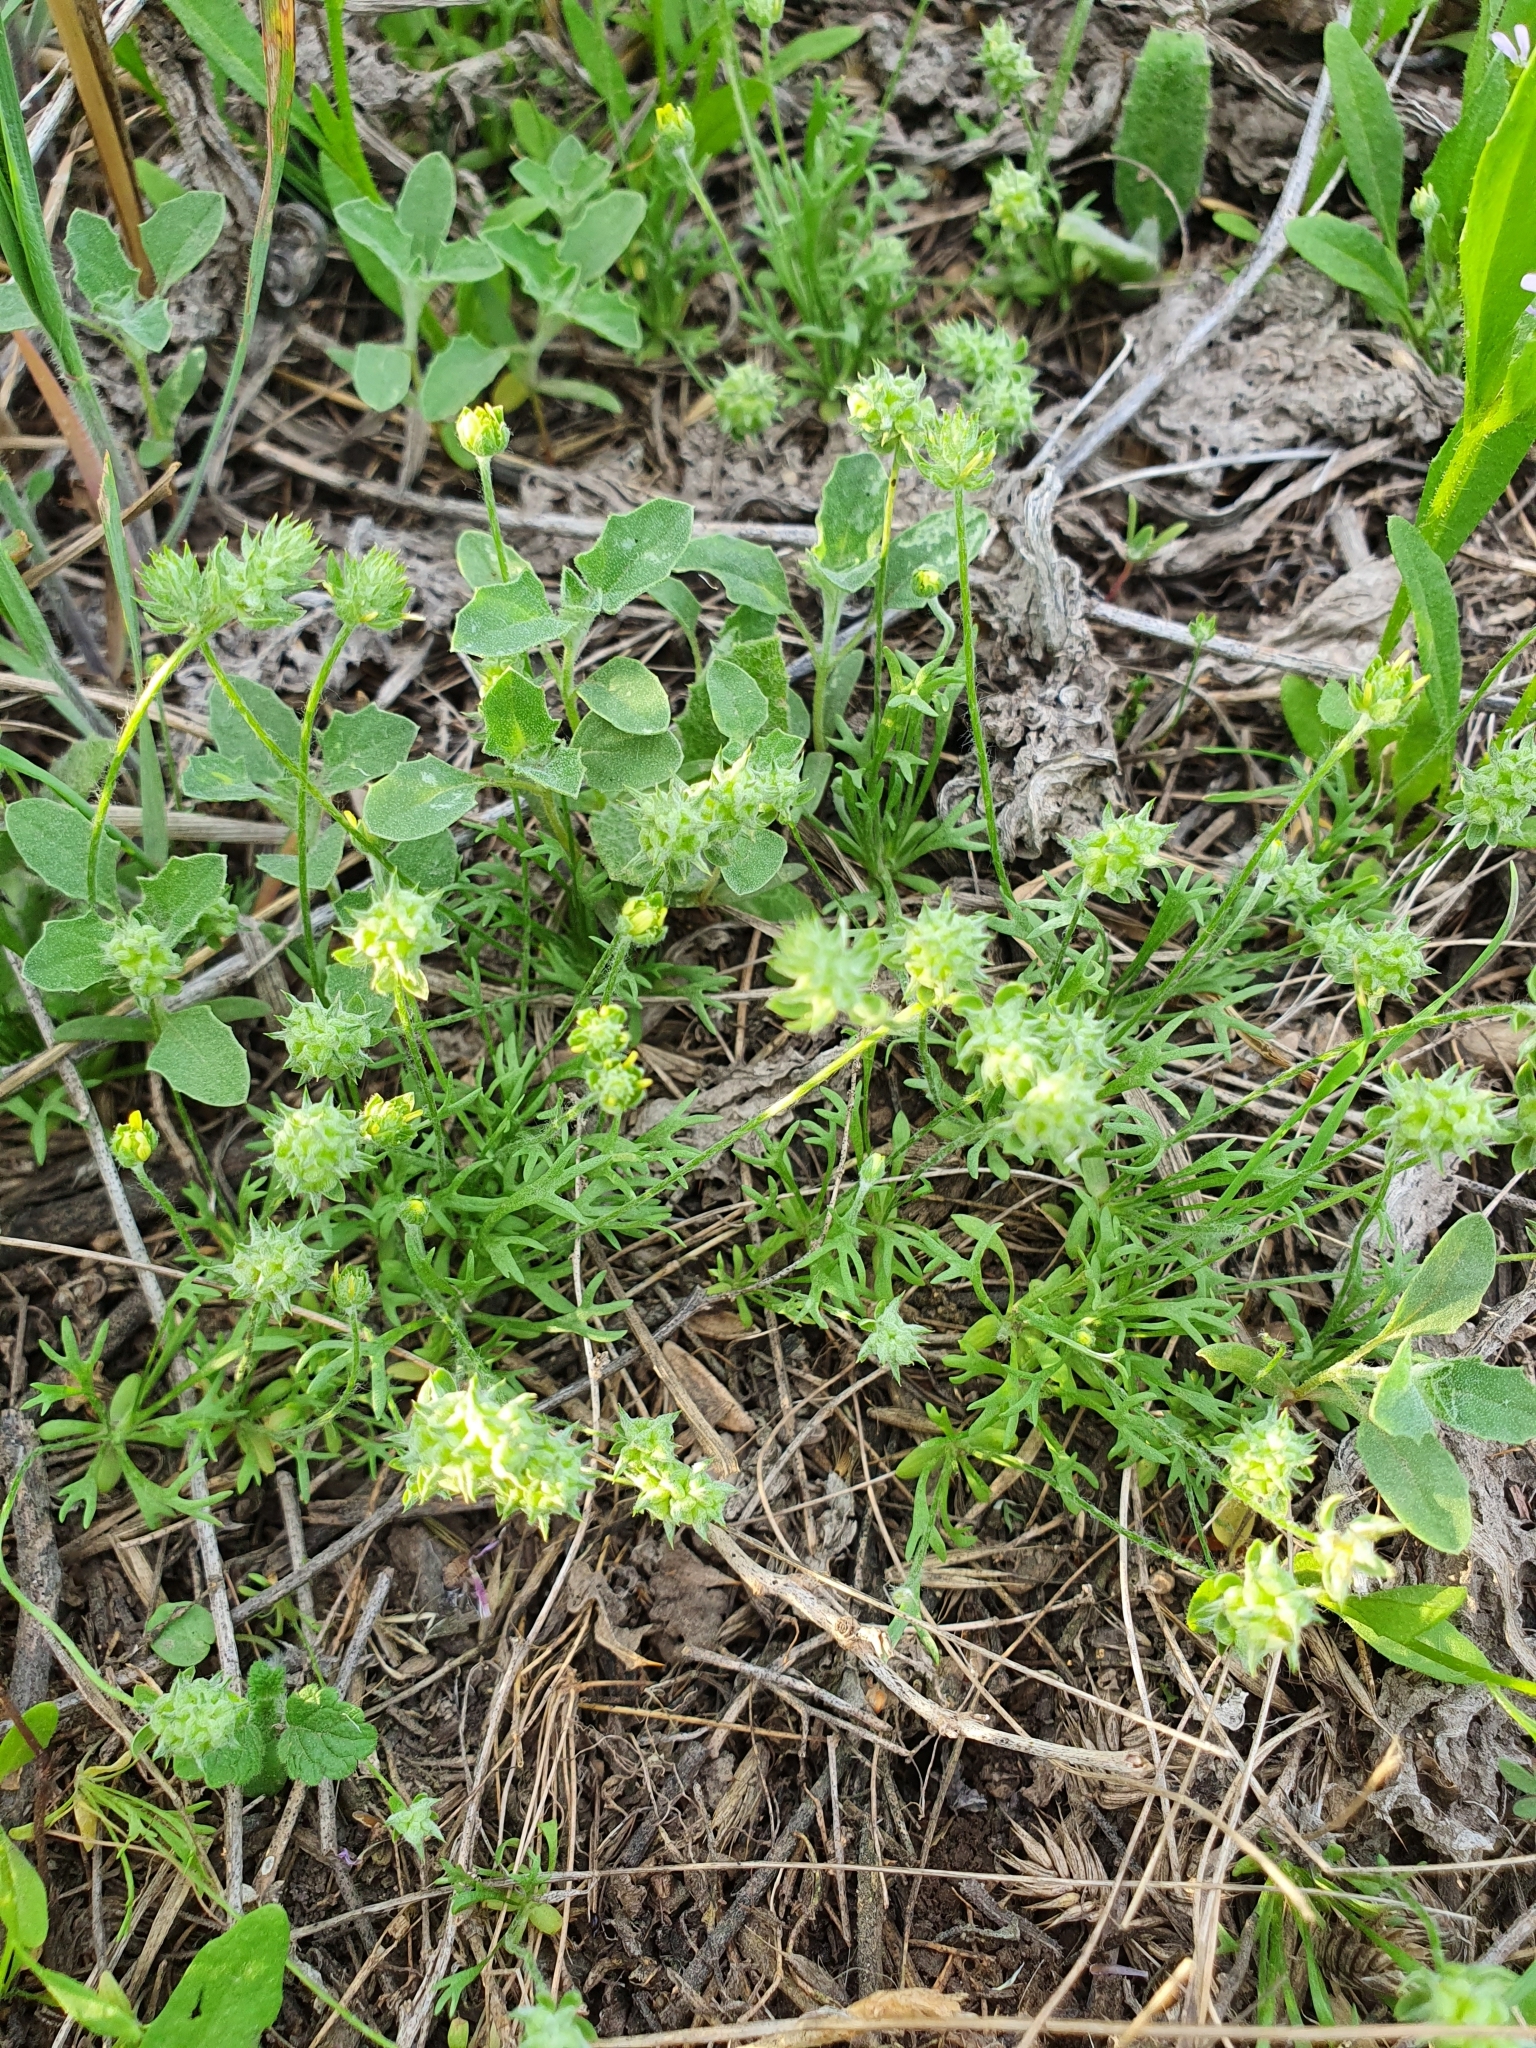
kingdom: Plantae
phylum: Tracheophyta
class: Magnoliopsida
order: Ranunculales
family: Ranunculaceae
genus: Ceratocephala
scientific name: Ceratocephala falcata
